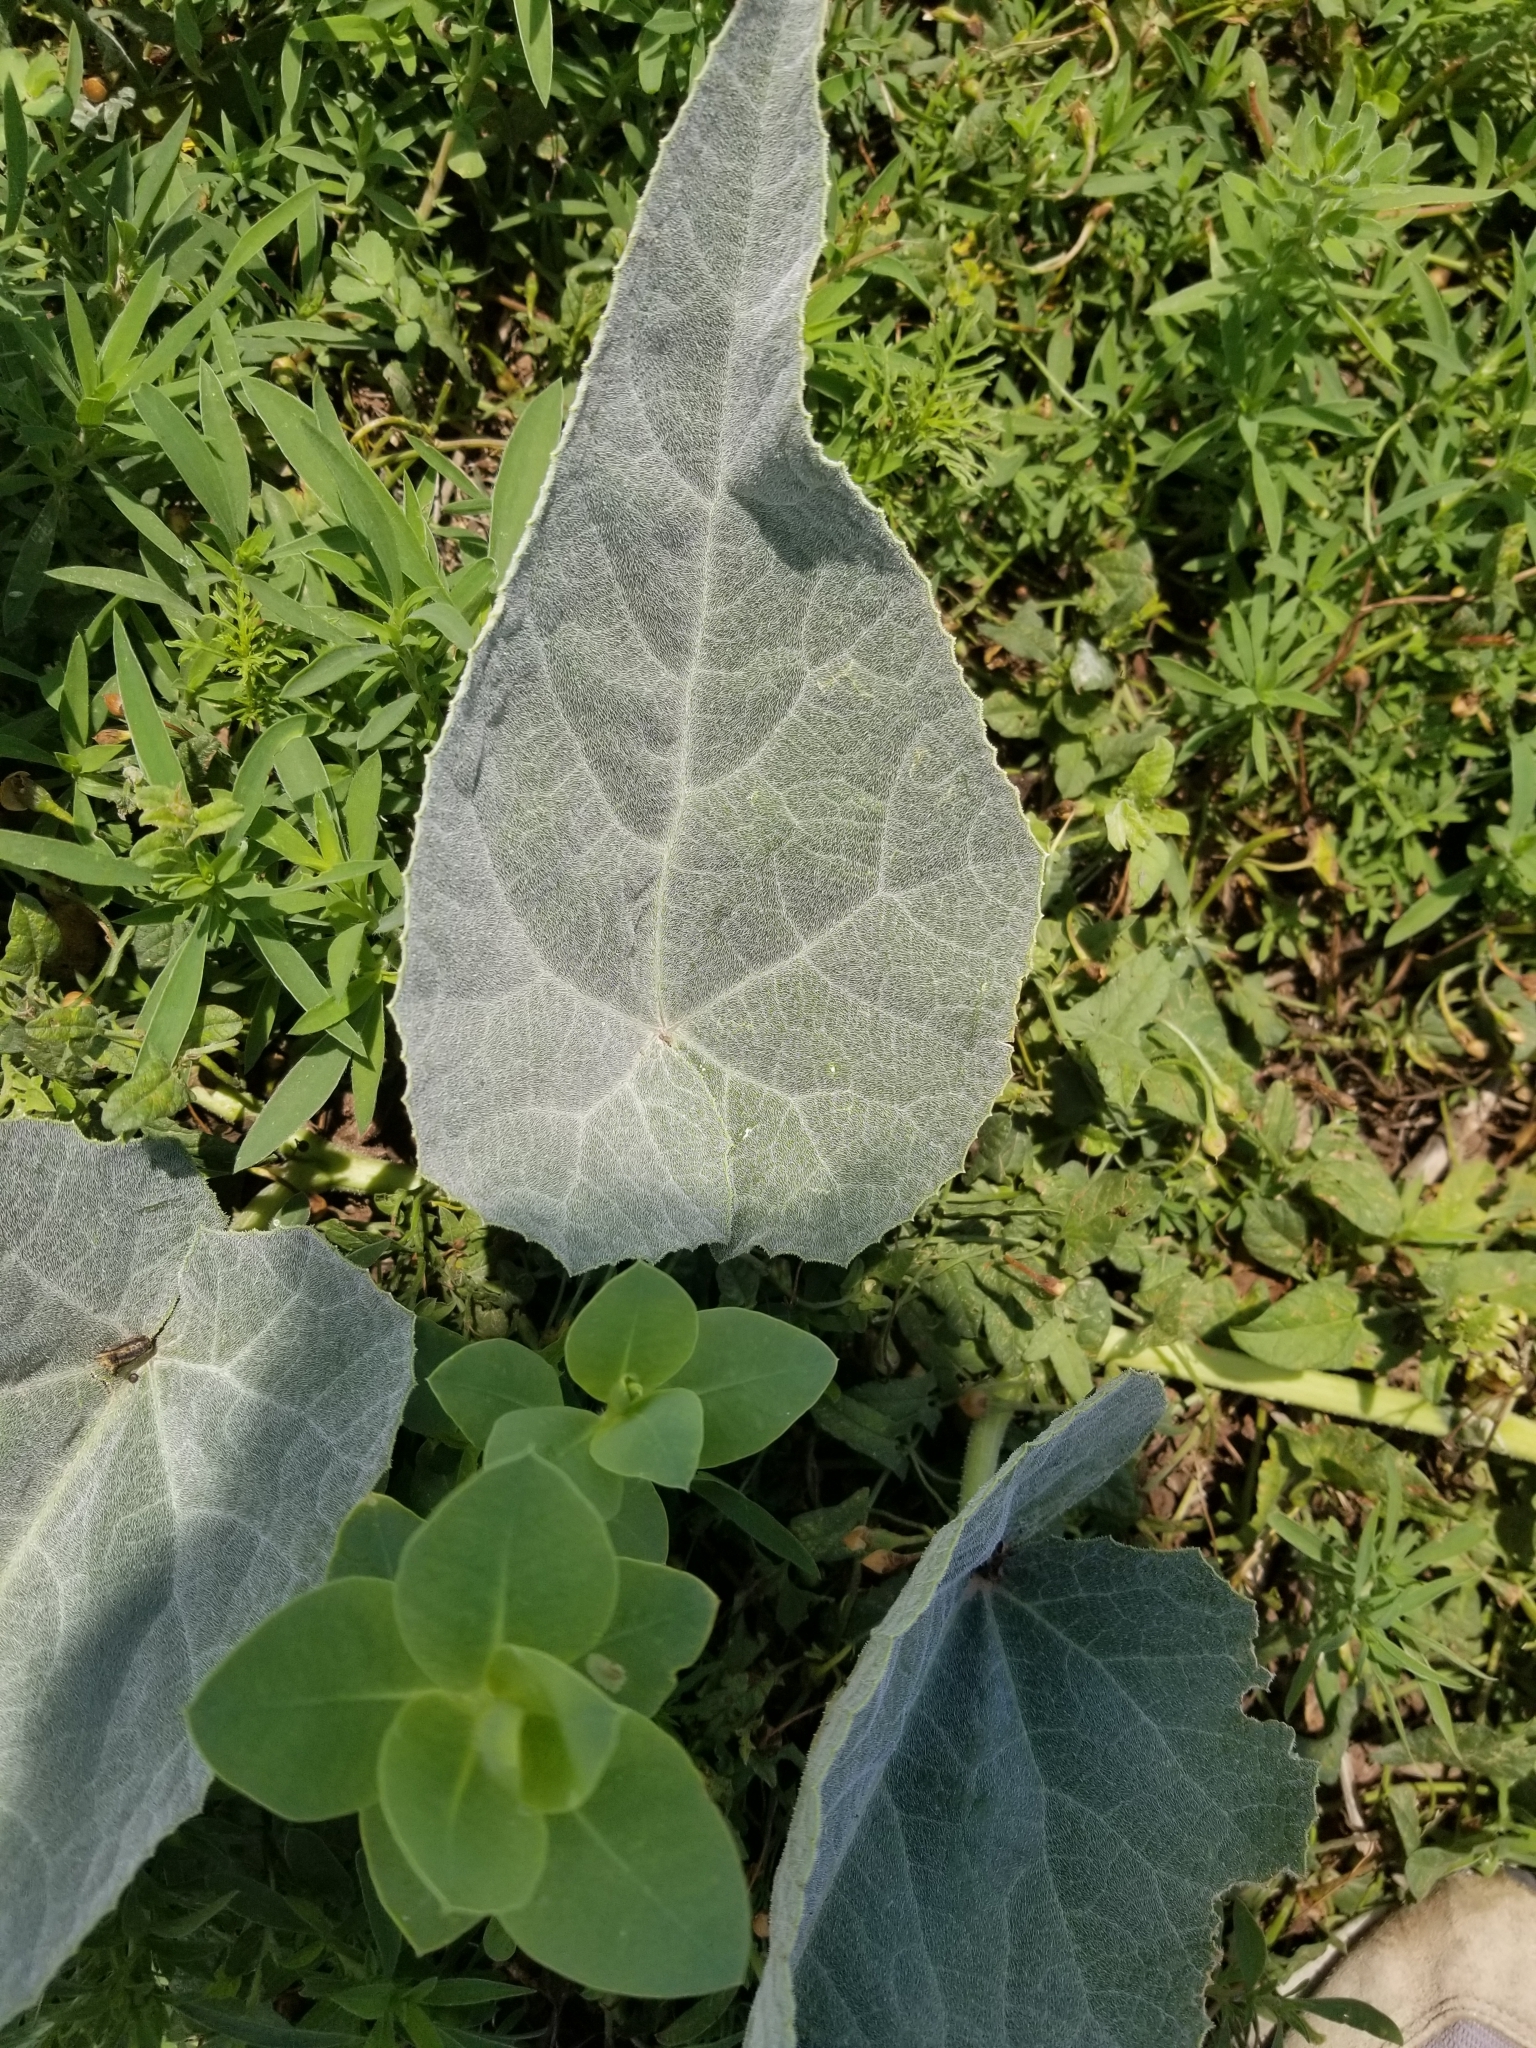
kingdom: Plantae
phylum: Tracheophyta
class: Magnoliopsida
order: Cucurbitales
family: Cucurbitaceae
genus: Cucurbita
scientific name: Cucurbita foetidissima
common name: Buffalo gourd
